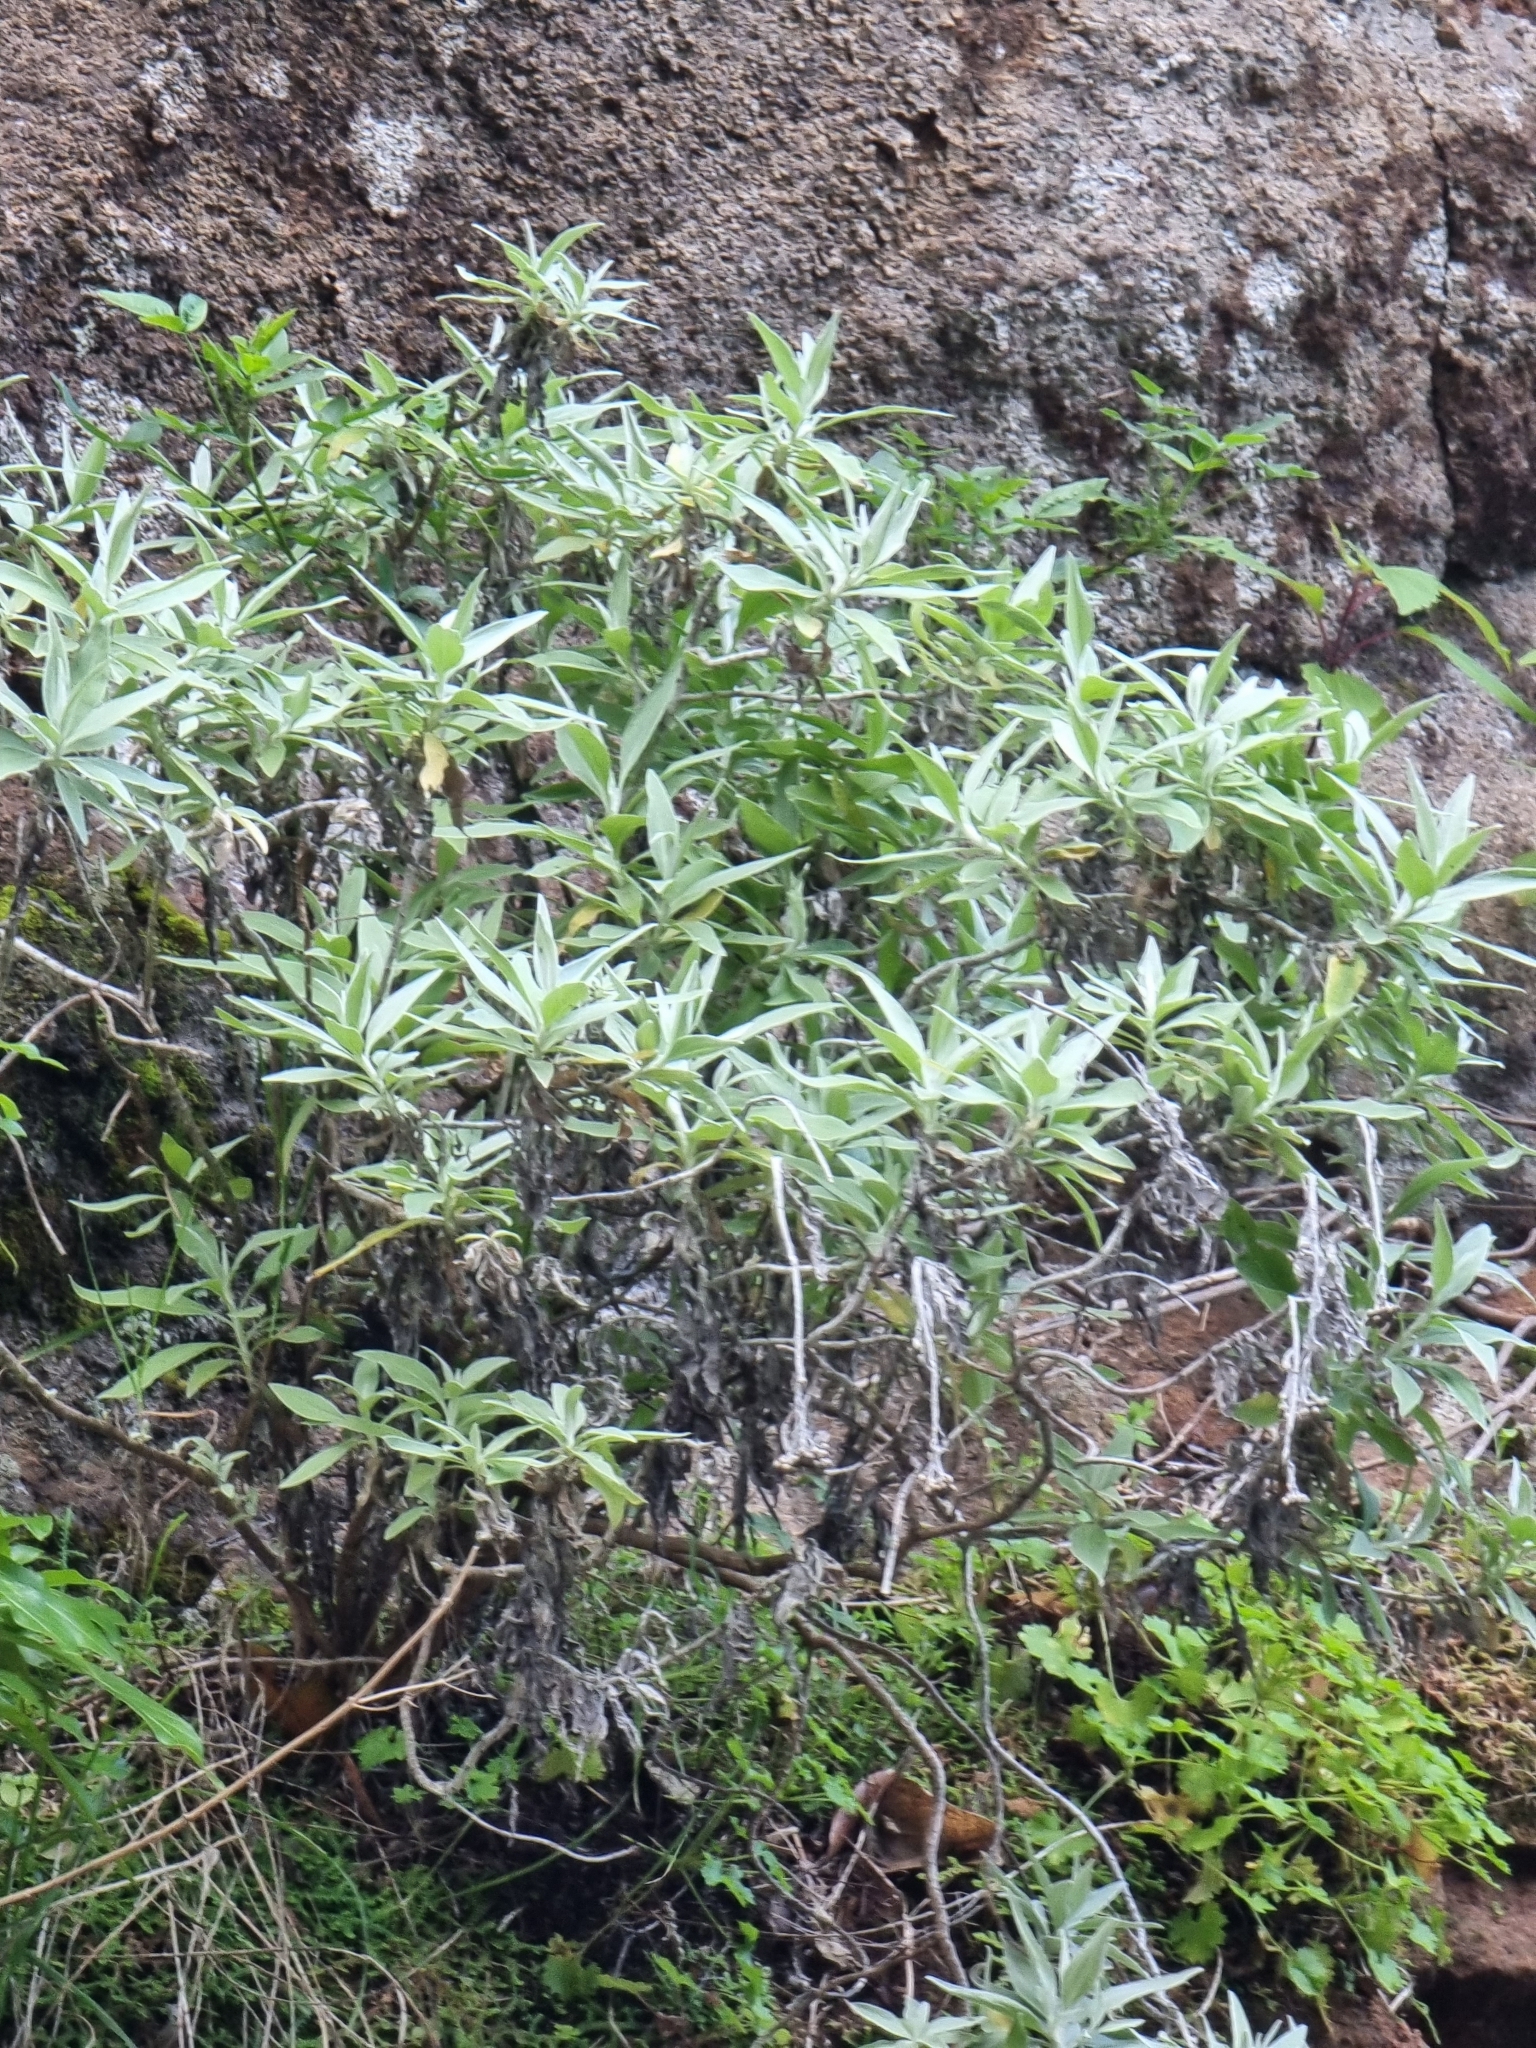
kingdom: Plantae
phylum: Tracheophyta
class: Magnoliopsida
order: Asterales
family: Asteraceae
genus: Helichrysum
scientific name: Helichrysum melaleucum
